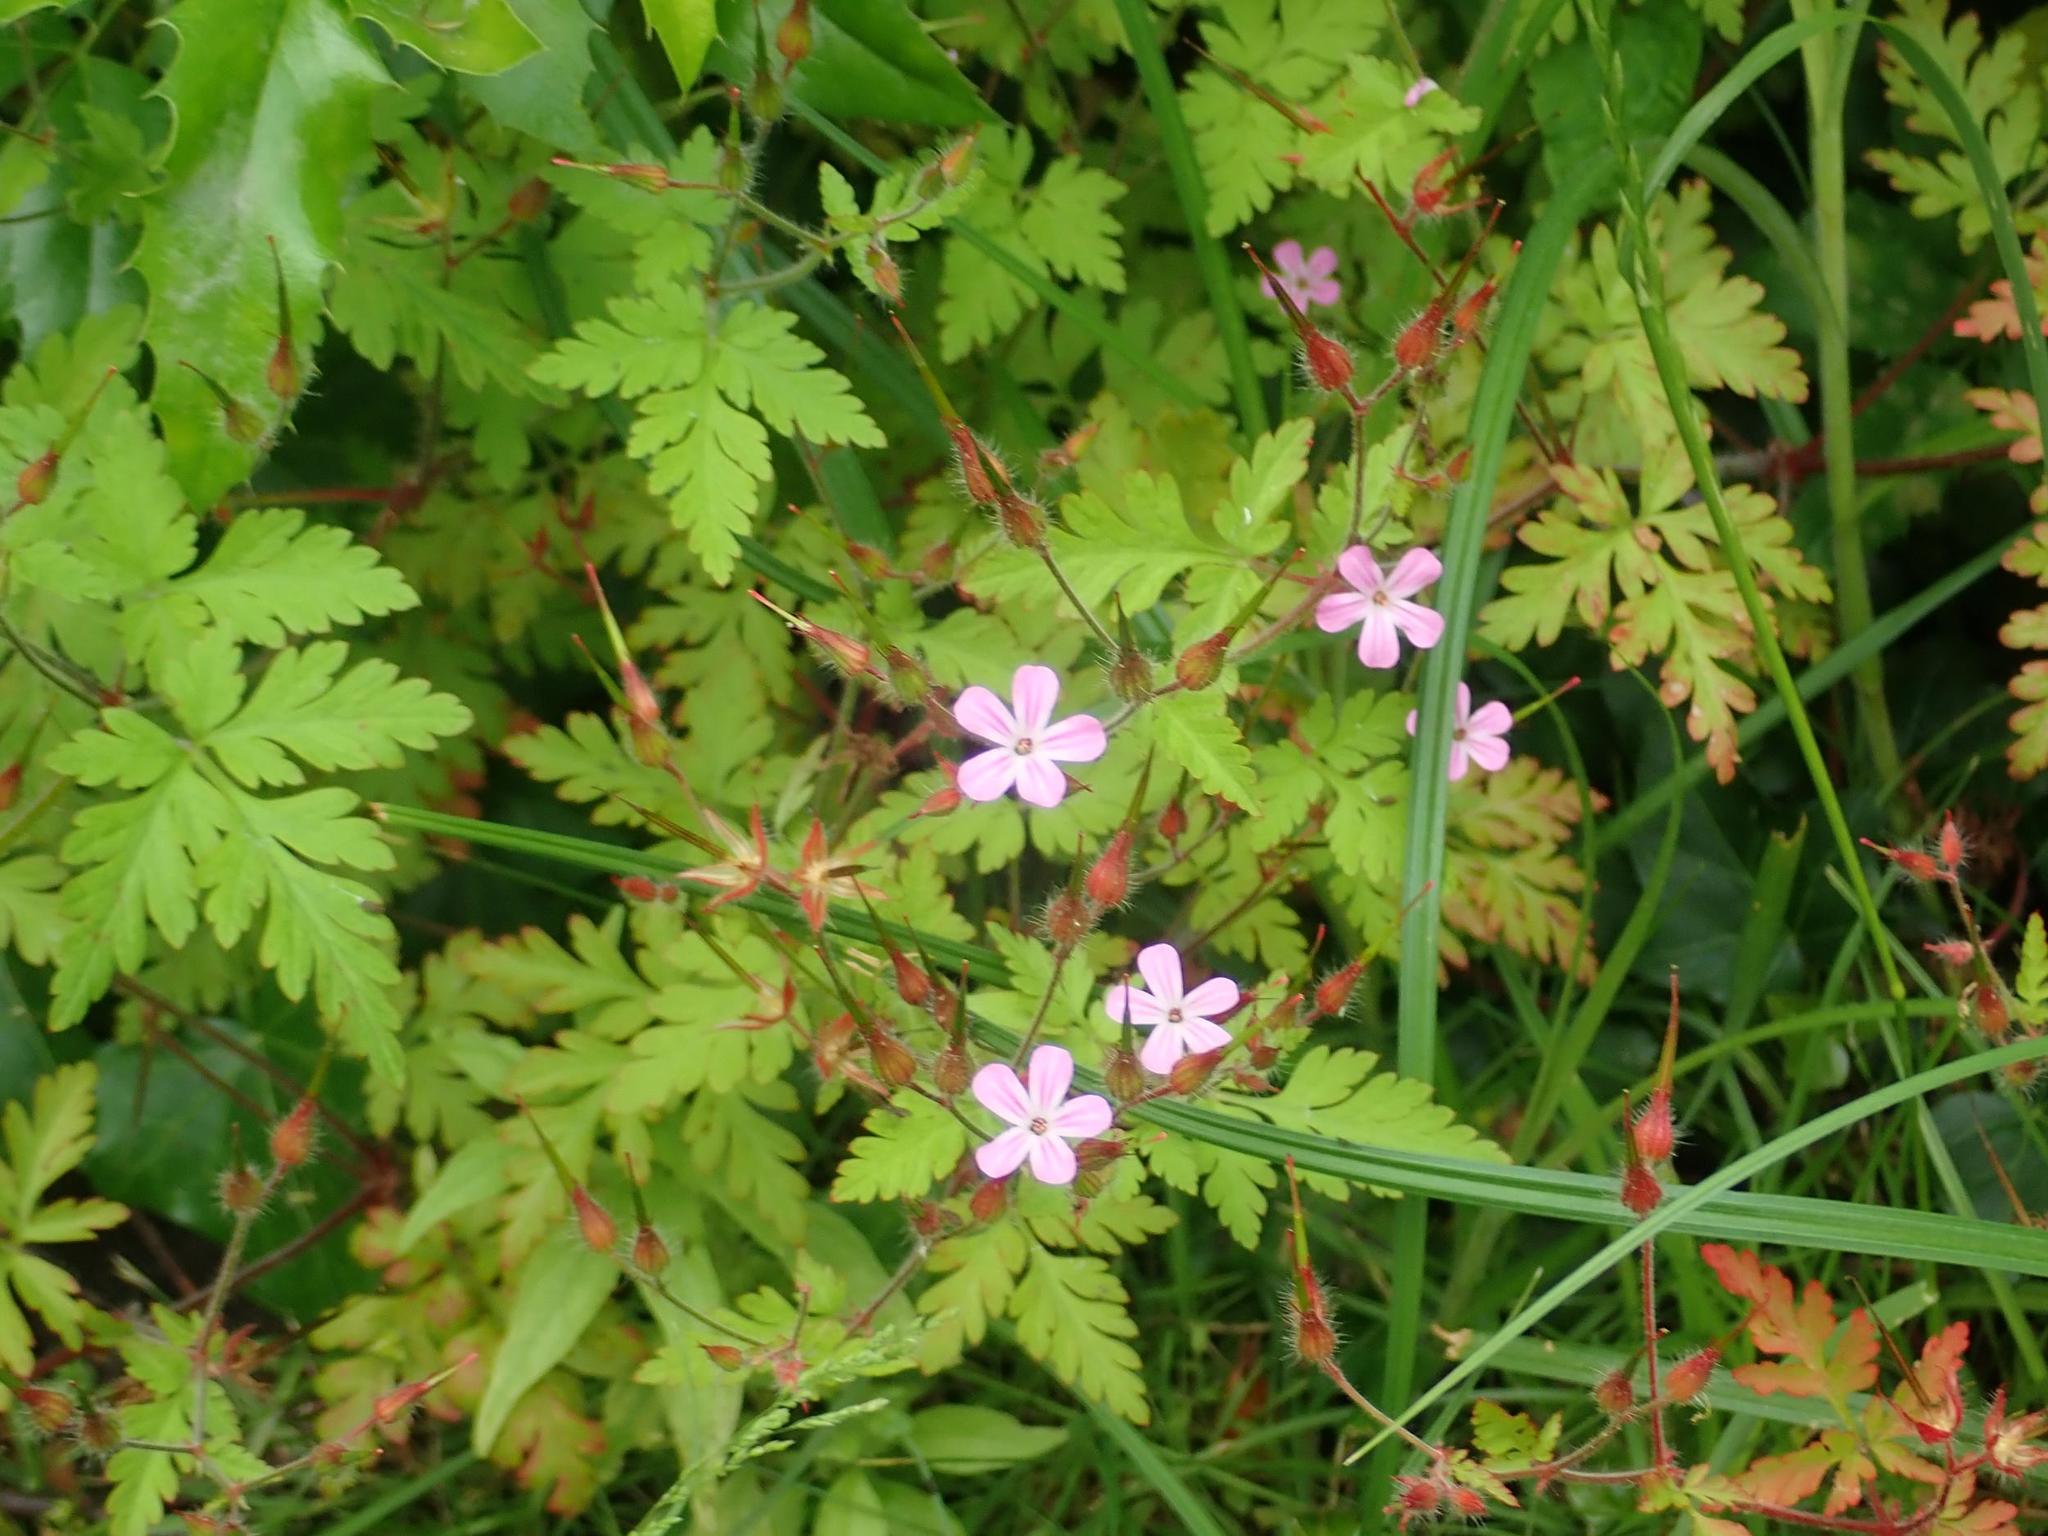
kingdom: Plantae
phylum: Tracheophyta
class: Magnoliopsida
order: Geraniales
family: Geraniaceae
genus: Geranium
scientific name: Geranium robertianum
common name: Herb-robert
